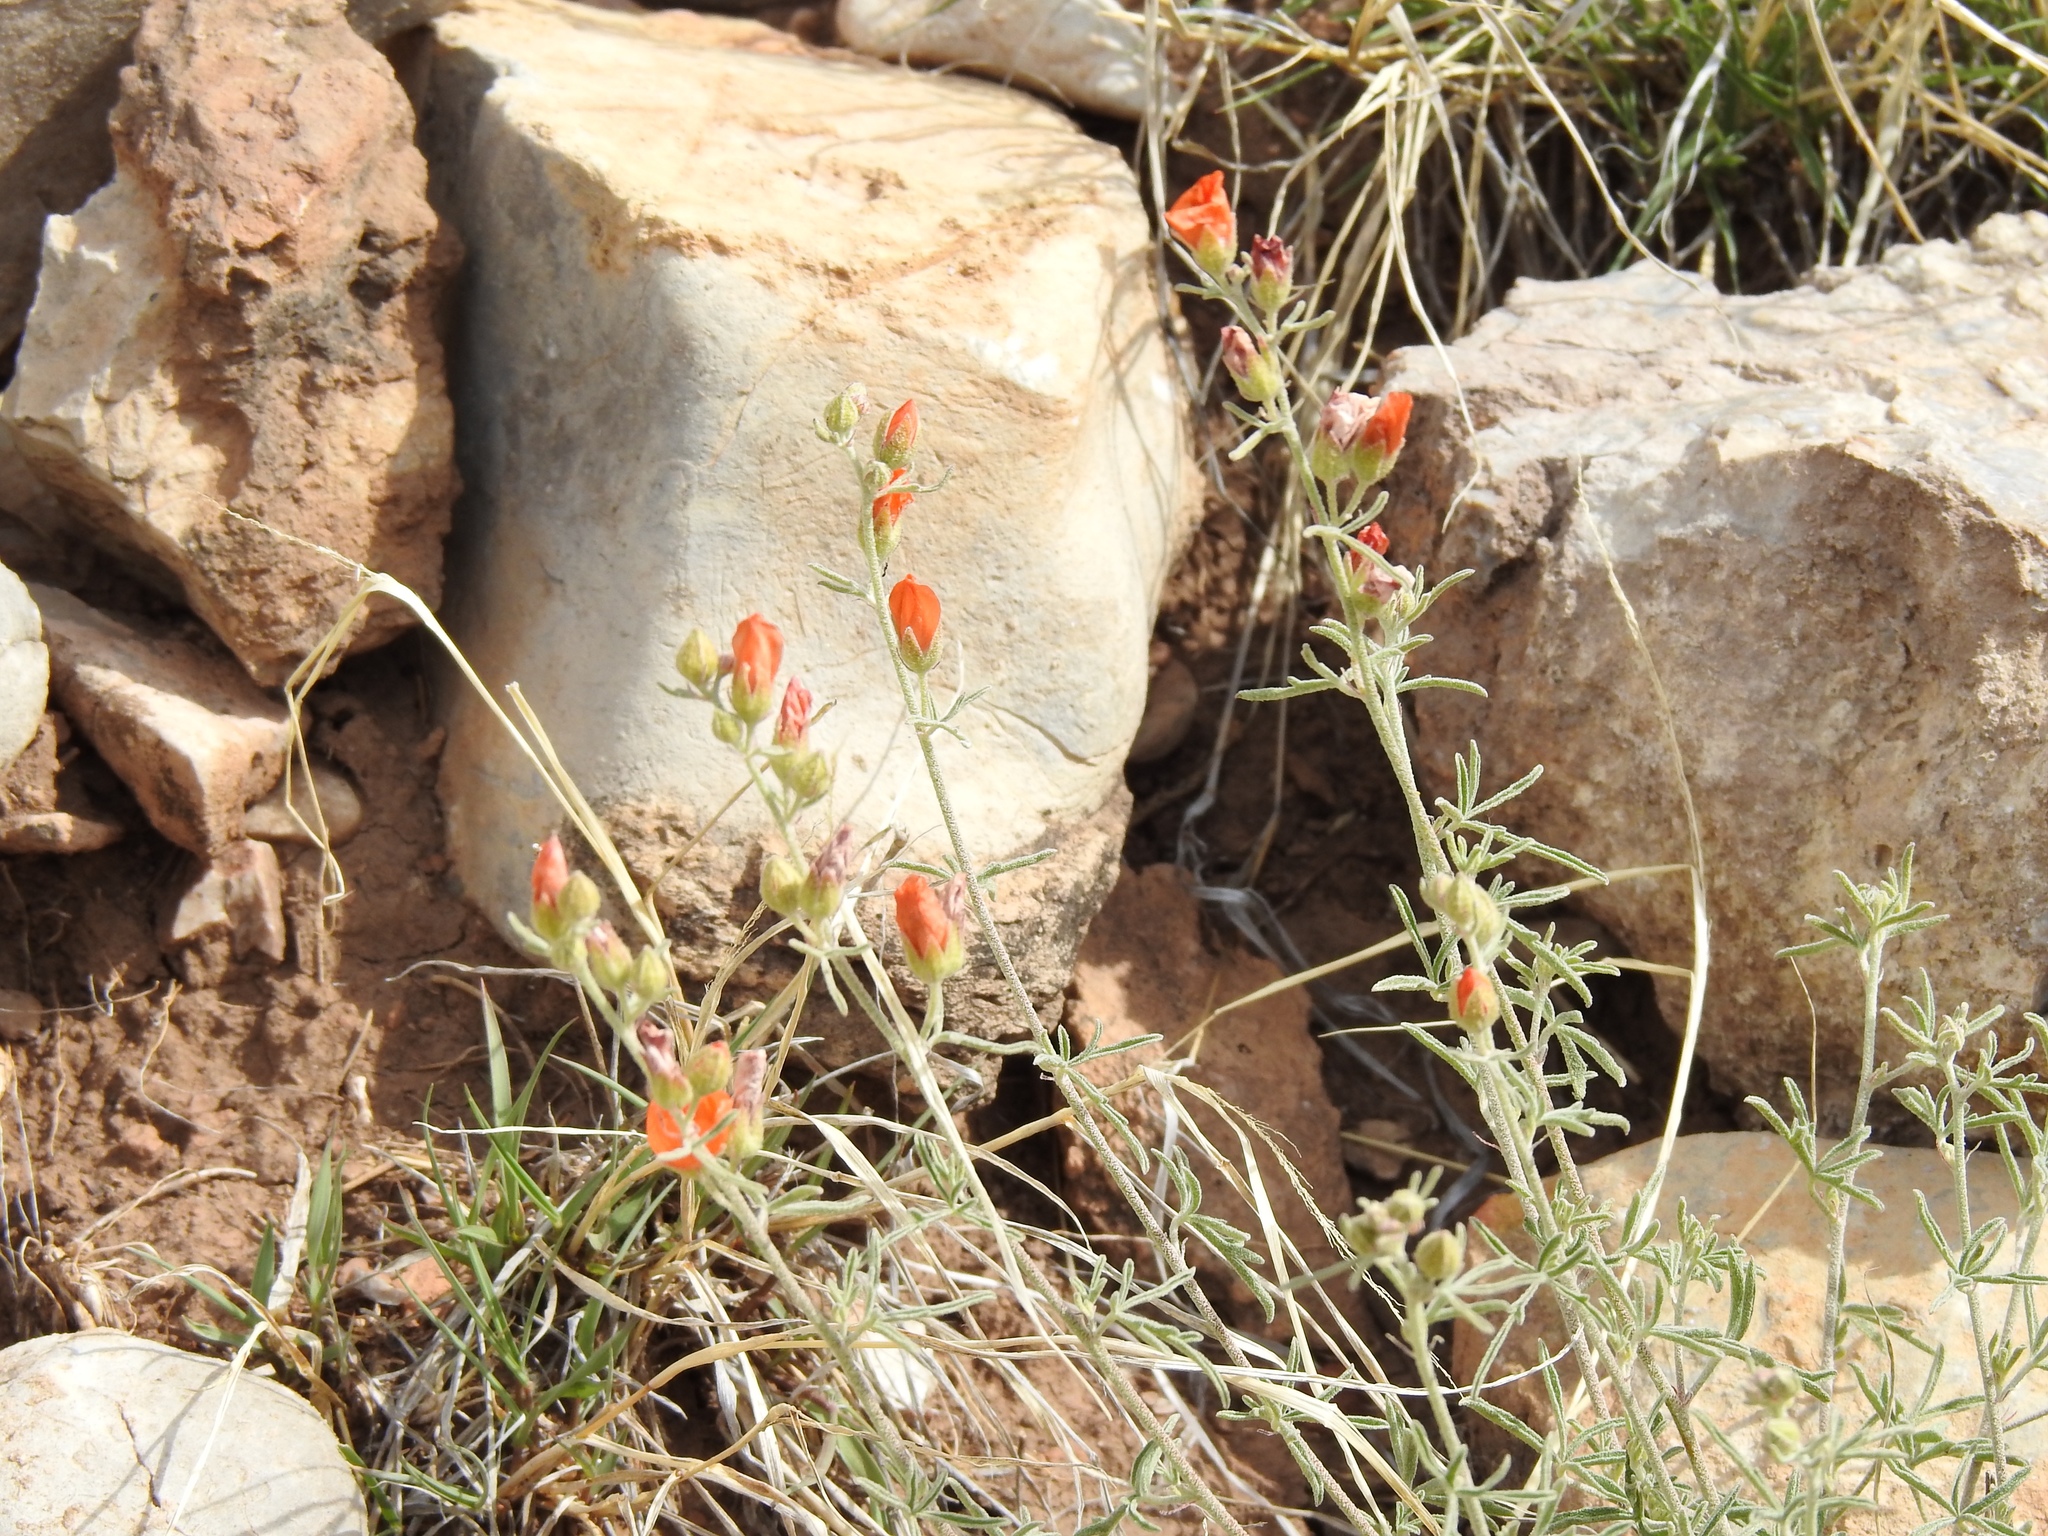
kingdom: Plantae
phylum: Tracheophyta
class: Magnoliopsida
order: Malvales
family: Malvaceae
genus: Sphaeralcea
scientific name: Sphaeralcea coccinea
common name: Moss-rose
